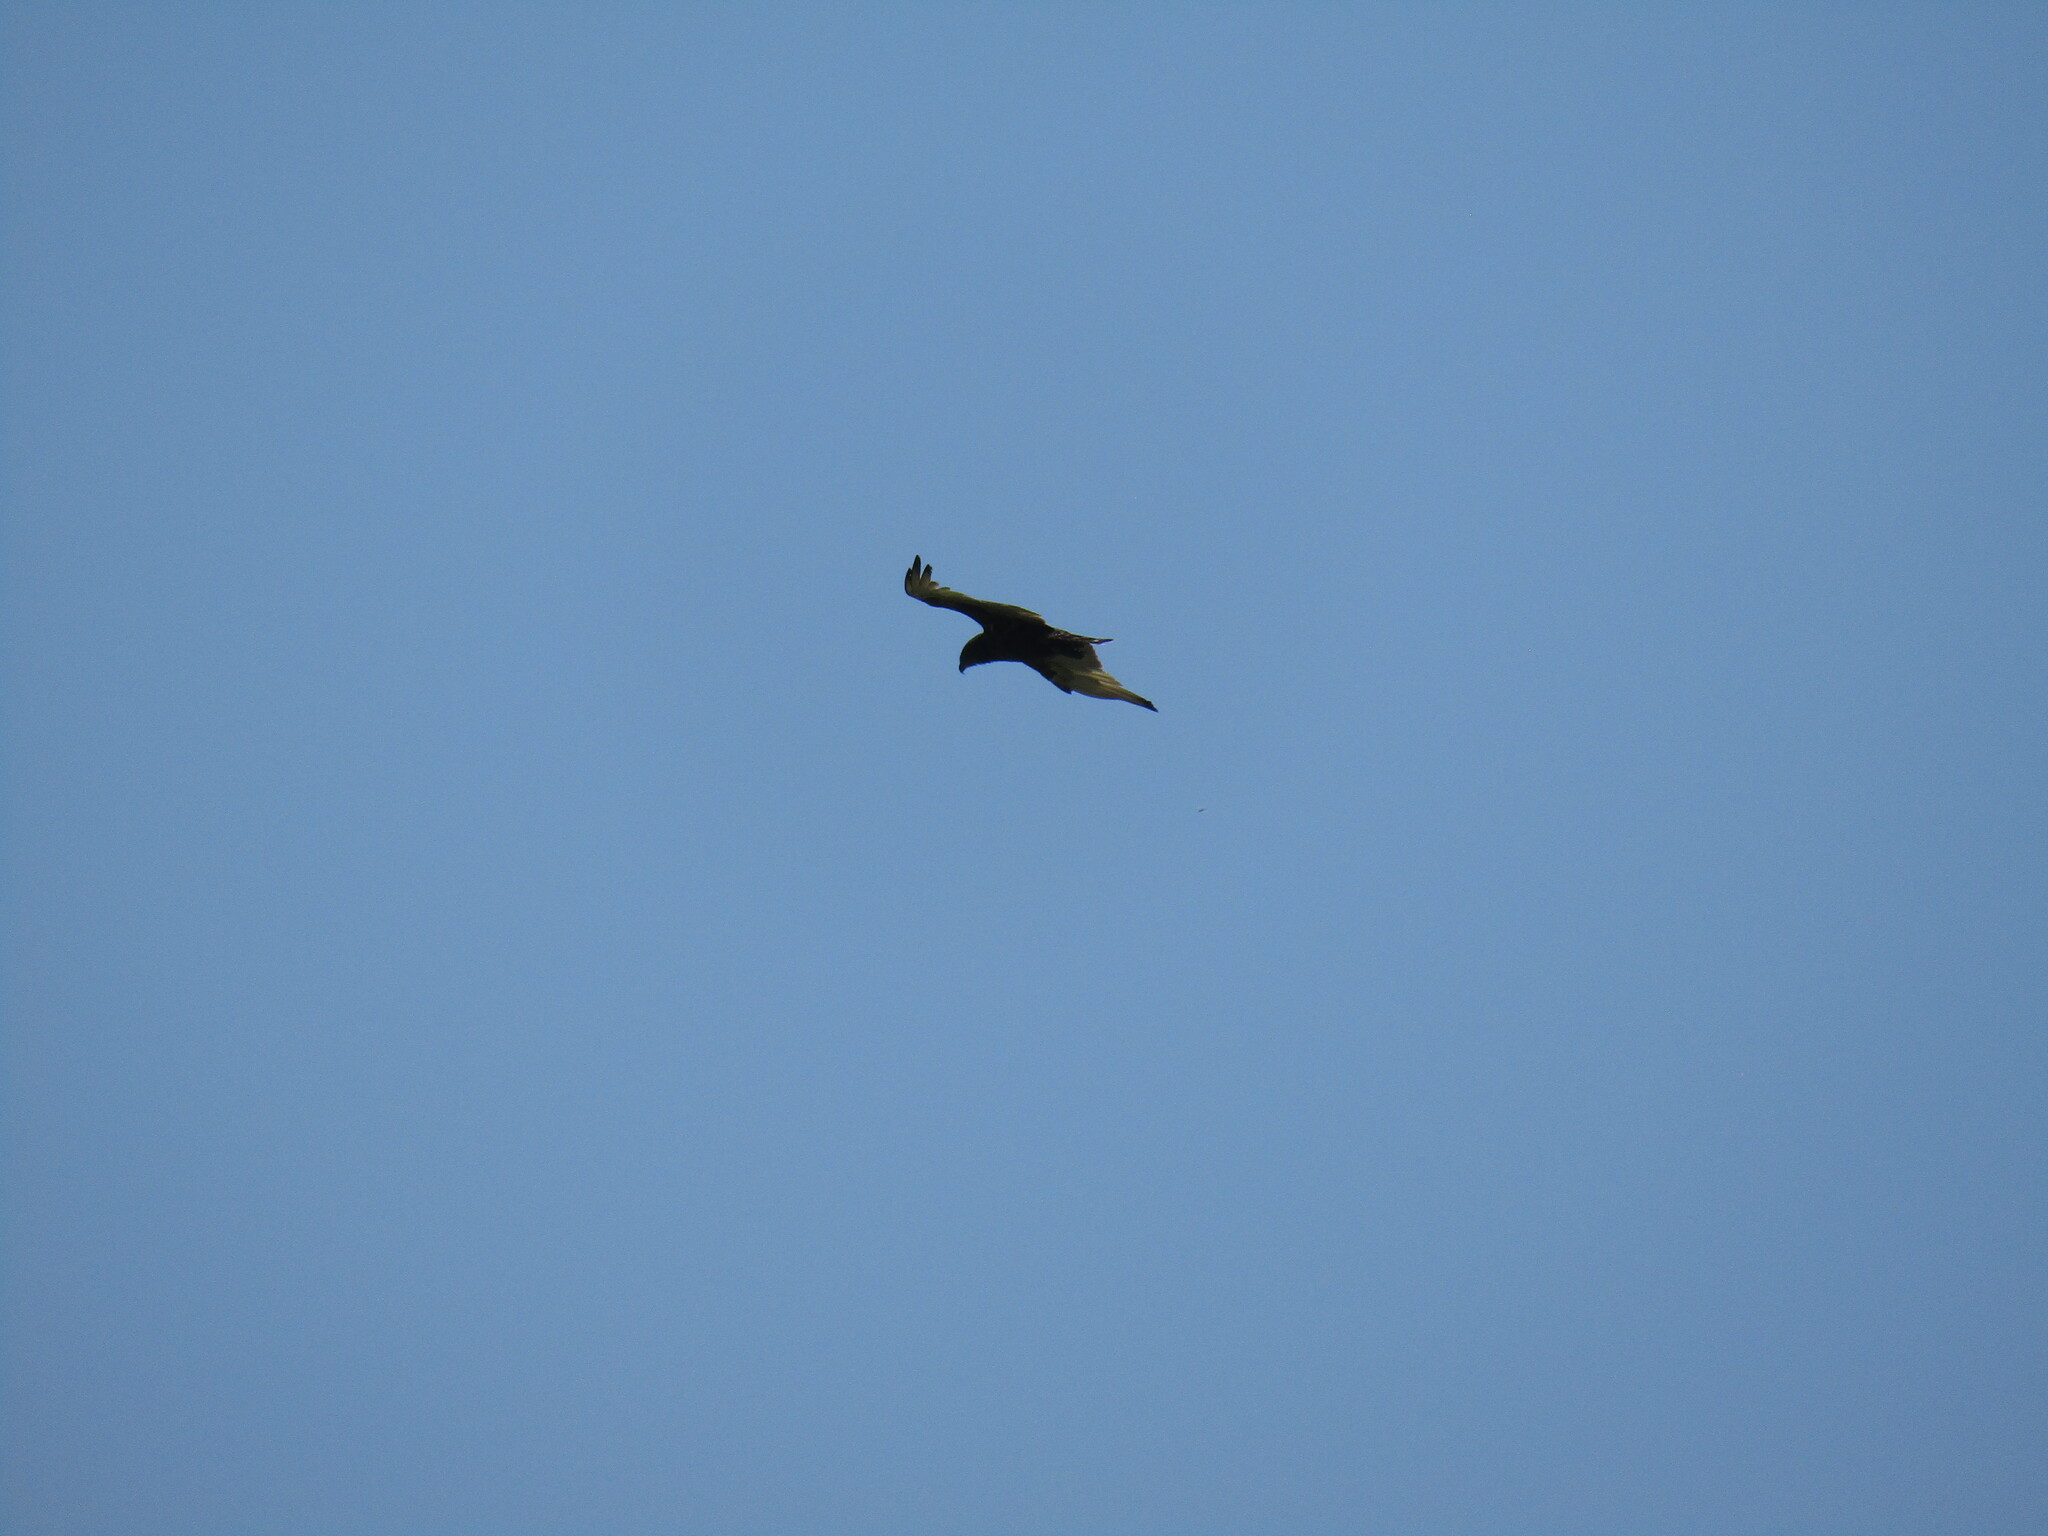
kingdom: Animalia
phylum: Chordata
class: Aves
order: Accipitriformes
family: Accipitridae
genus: Circaetus
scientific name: Circaetus cinereus
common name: Brown snake eagle
